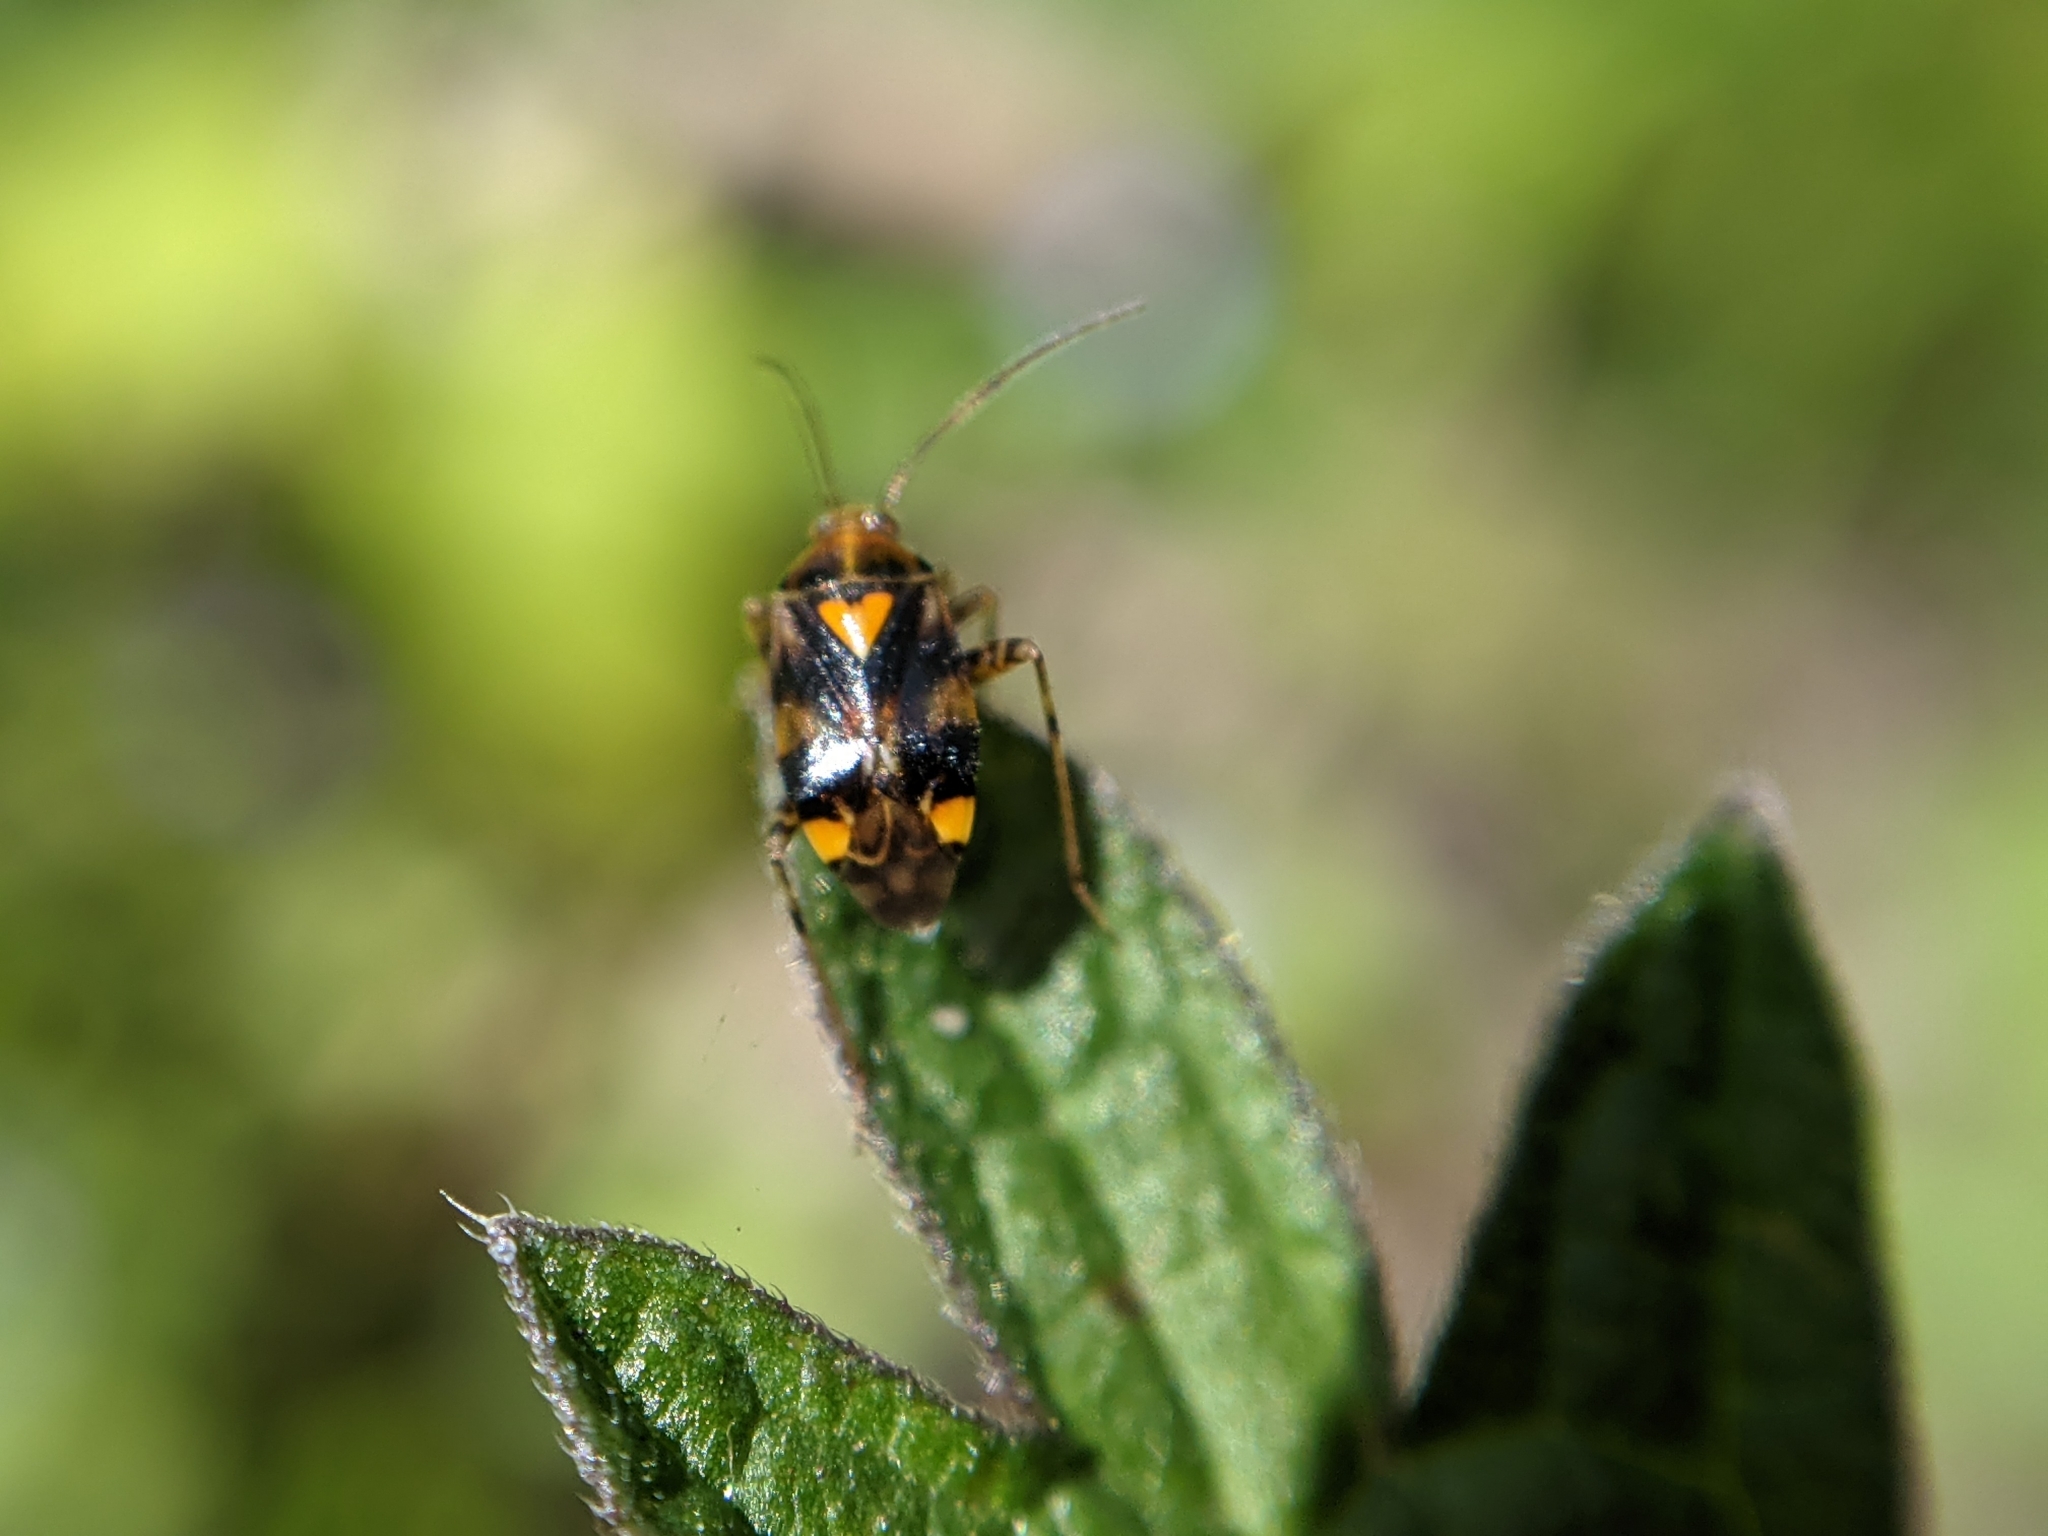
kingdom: Animalia
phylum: Arthropoda
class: Insecta
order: Hemiptera
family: Miridae
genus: Liocoris
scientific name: Liocoris tripustulatus
